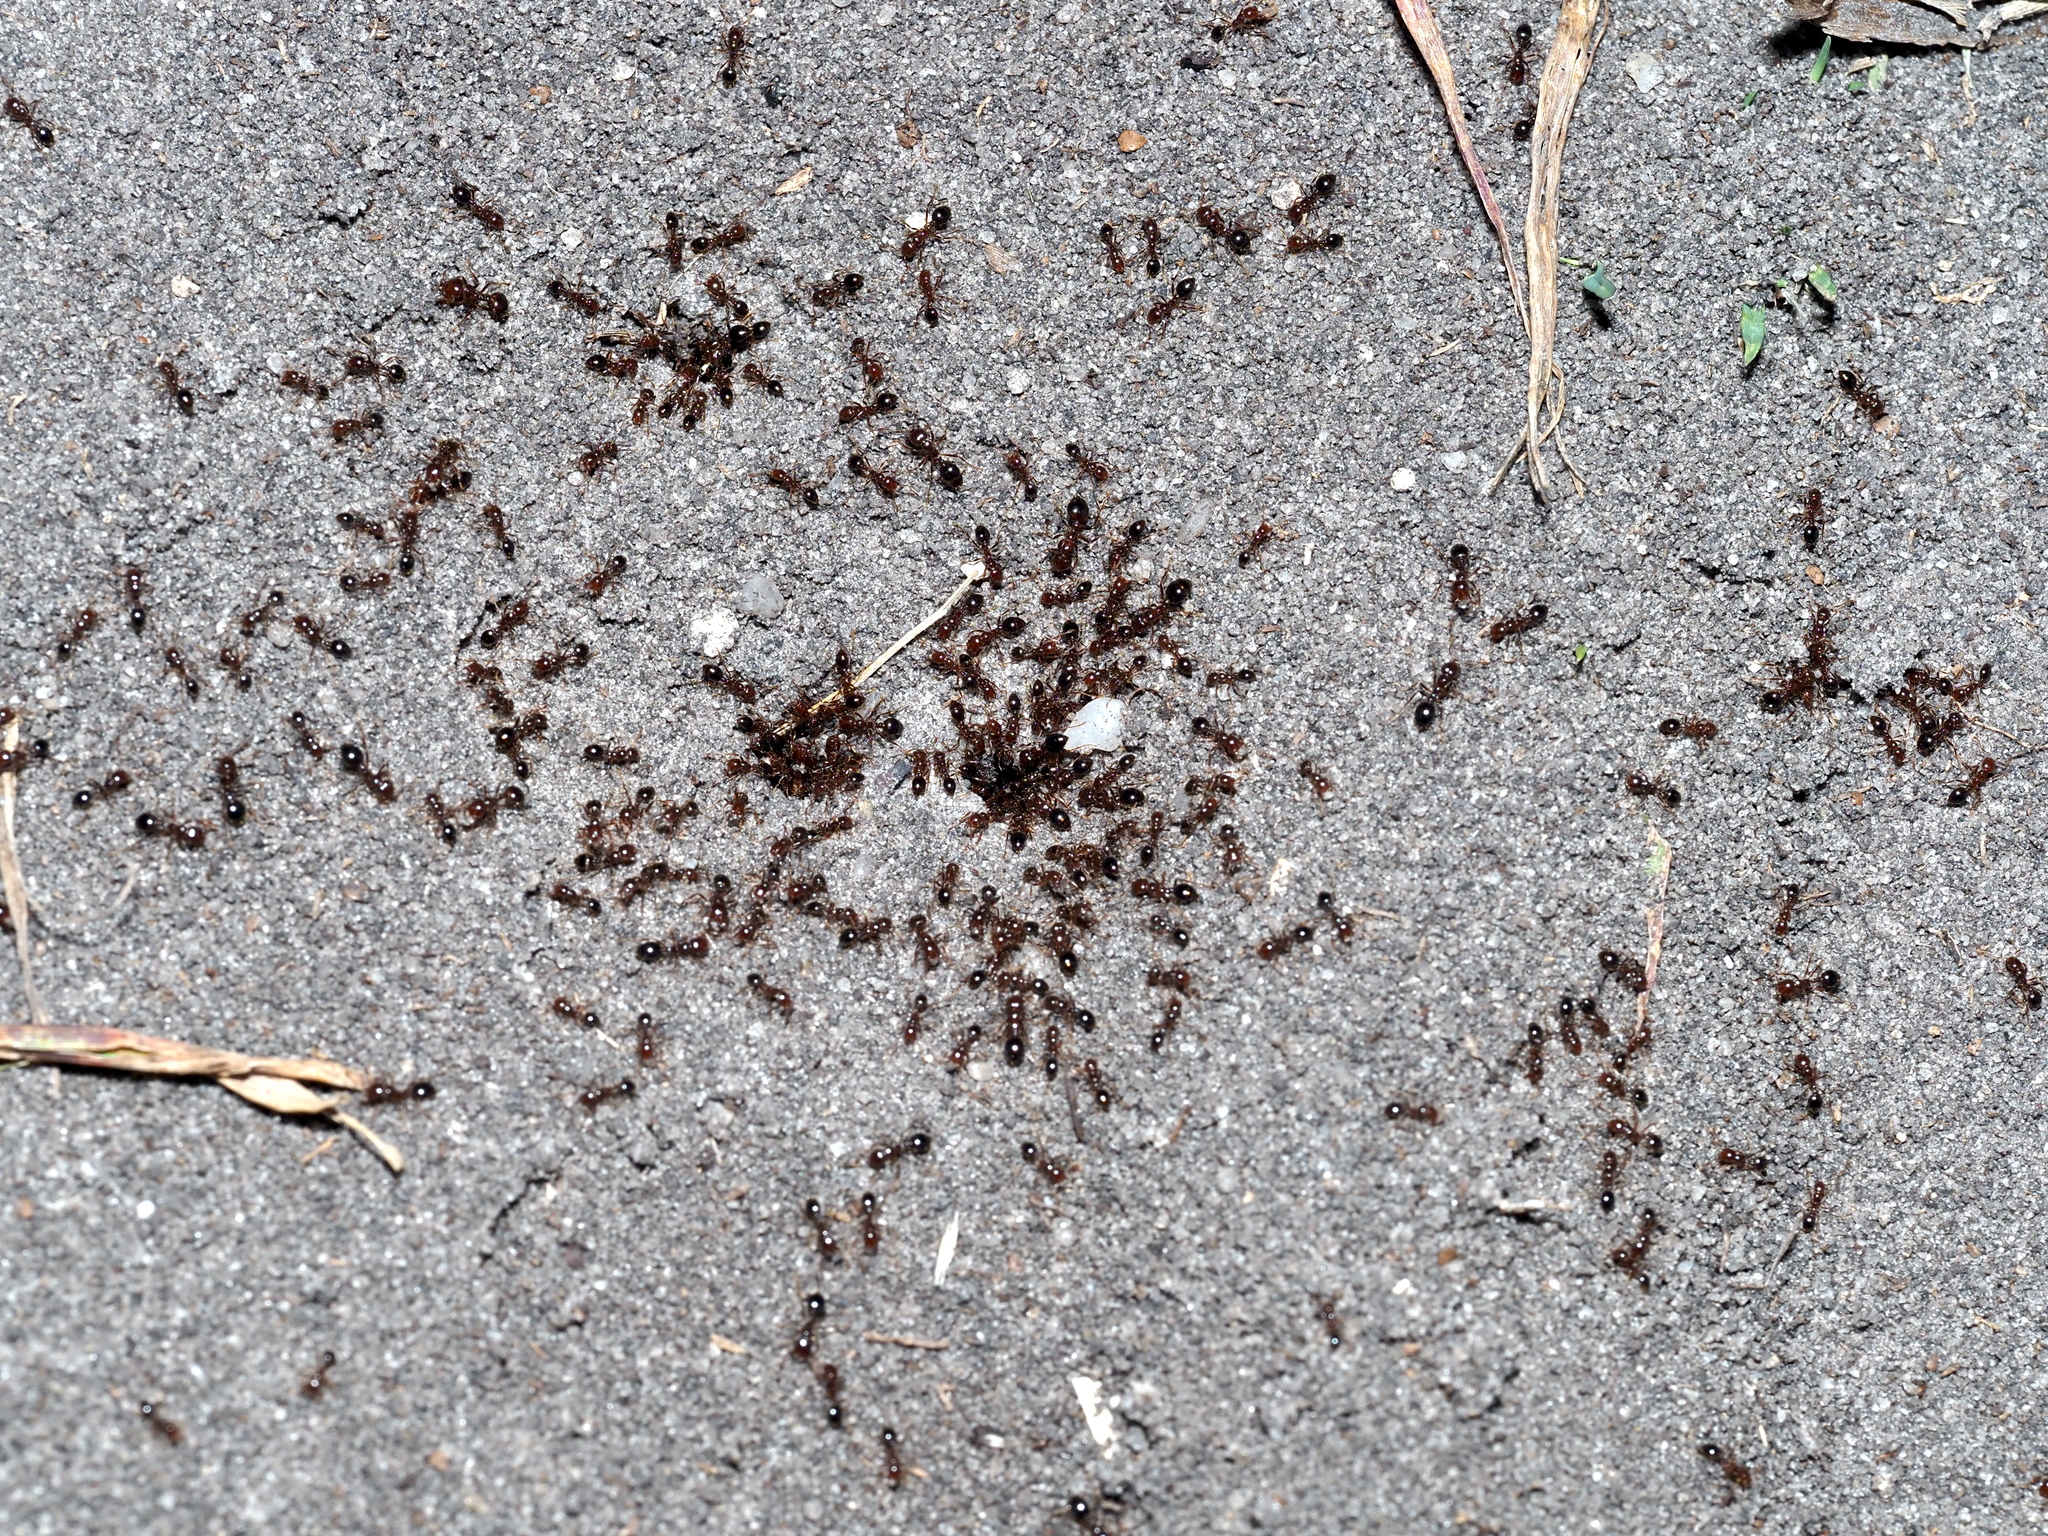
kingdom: Animalia
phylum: Arthropoda
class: Insecta
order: Hymenoptera
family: Formicidae
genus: Solenopsis
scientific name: Solenopsis invicta
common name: Red imported fire ant
